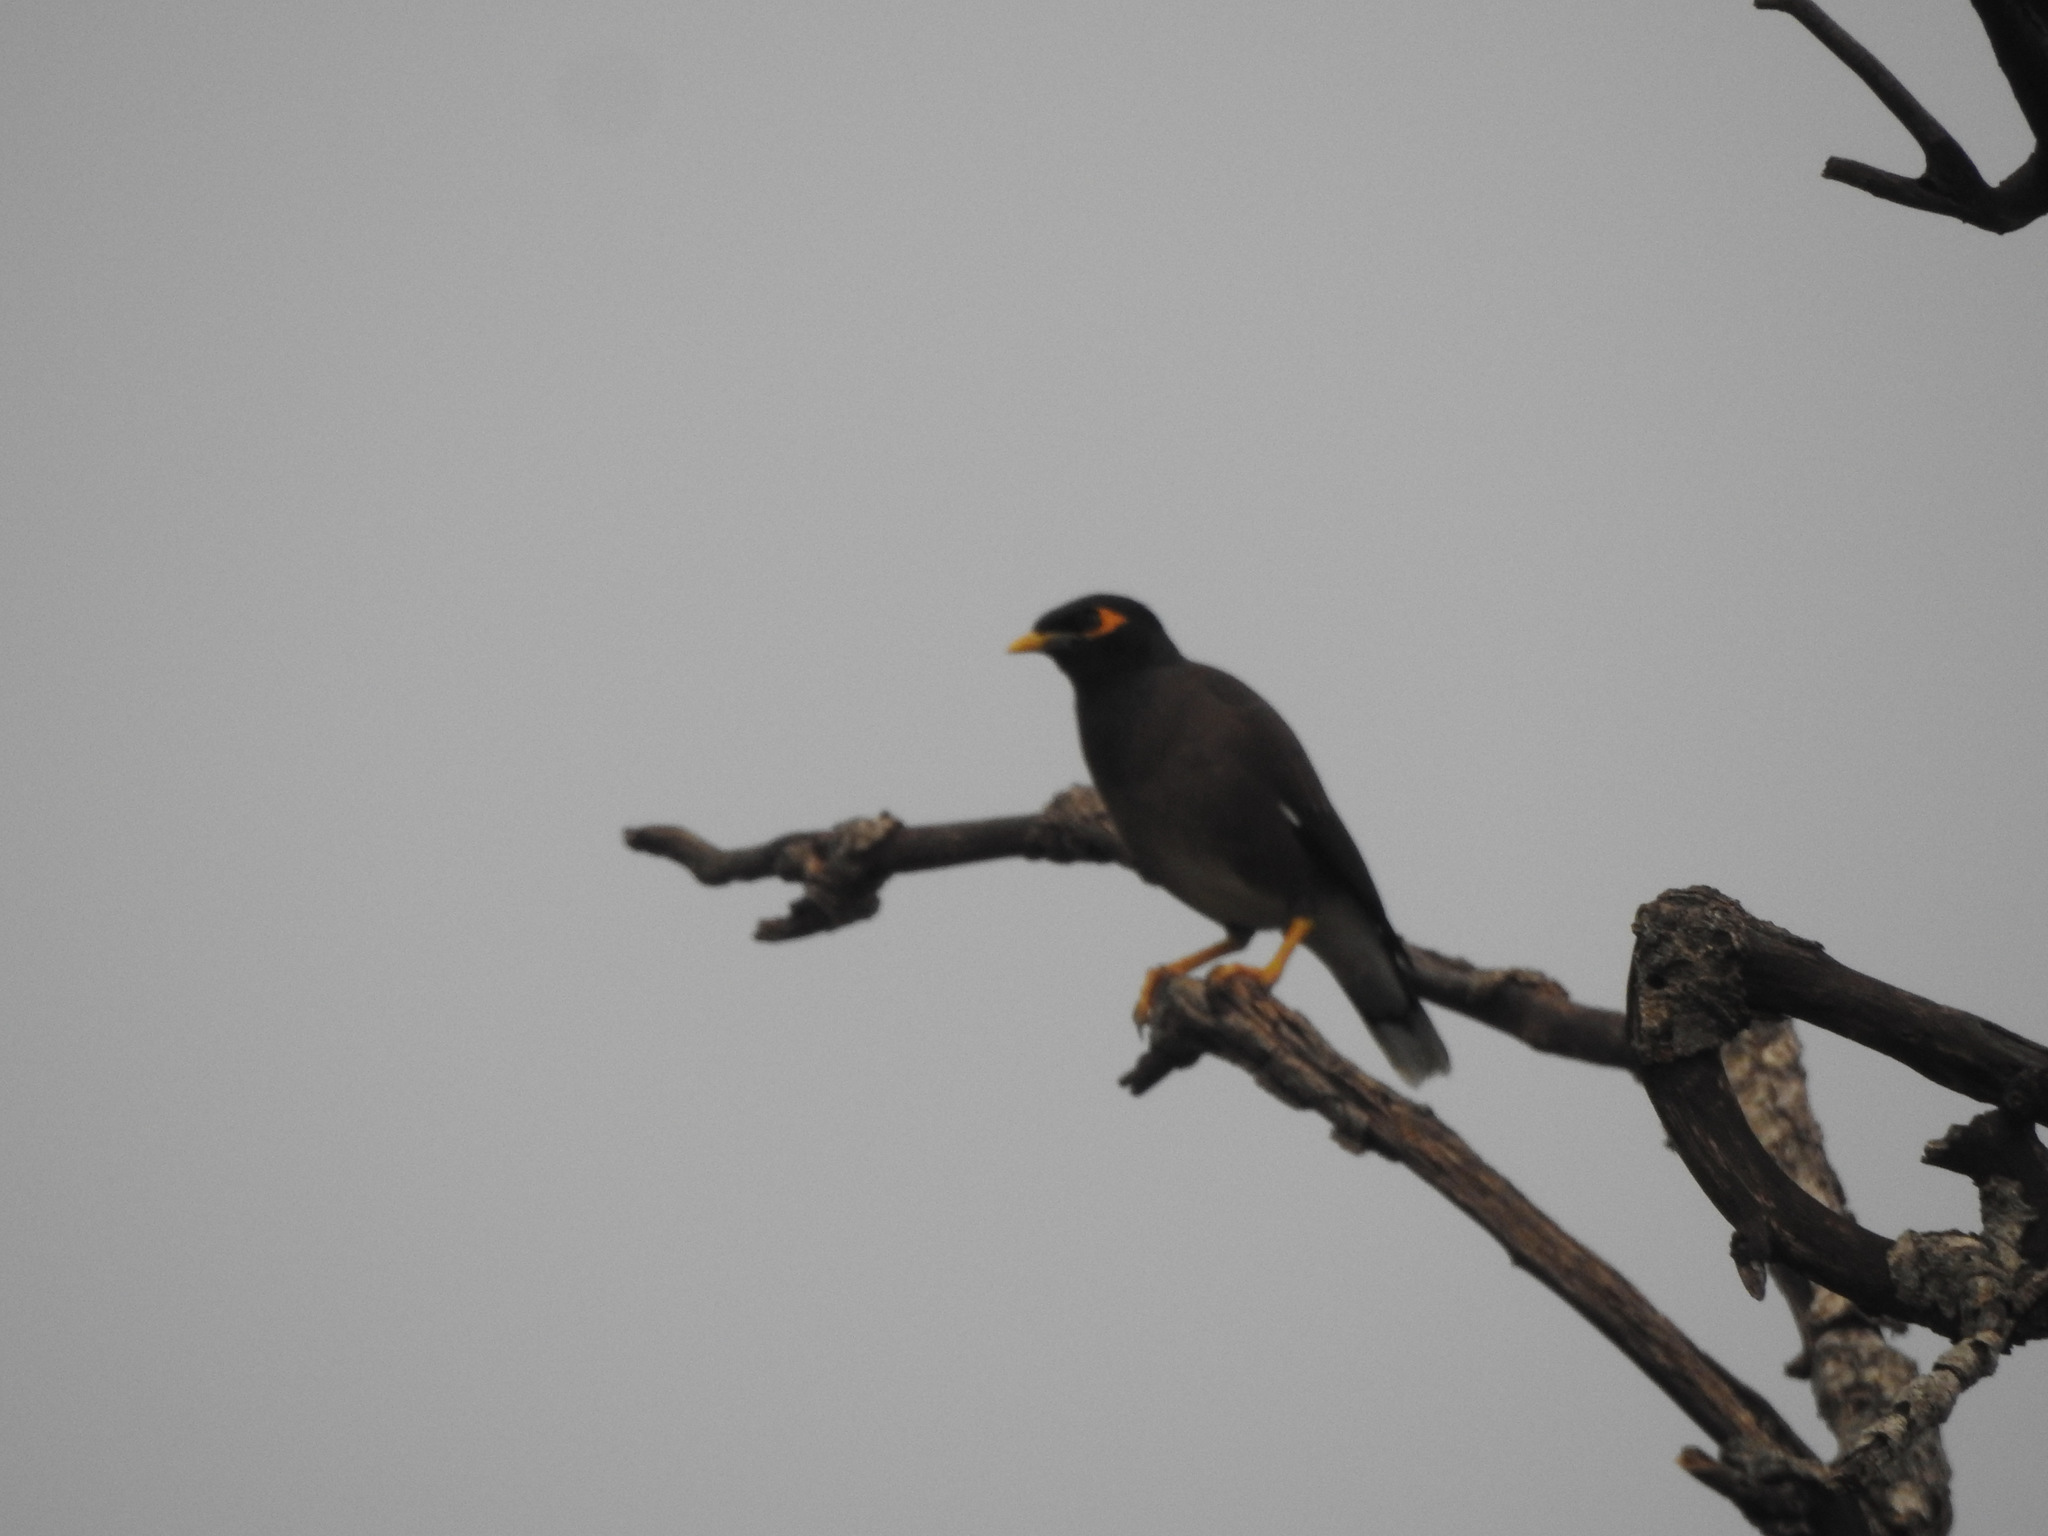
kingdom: Animalia
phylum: Chordata
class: Aves
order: Passeriformes
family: Sturnidae
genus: Acridotheres
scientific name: Acridotheres tristis
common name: Common myna
